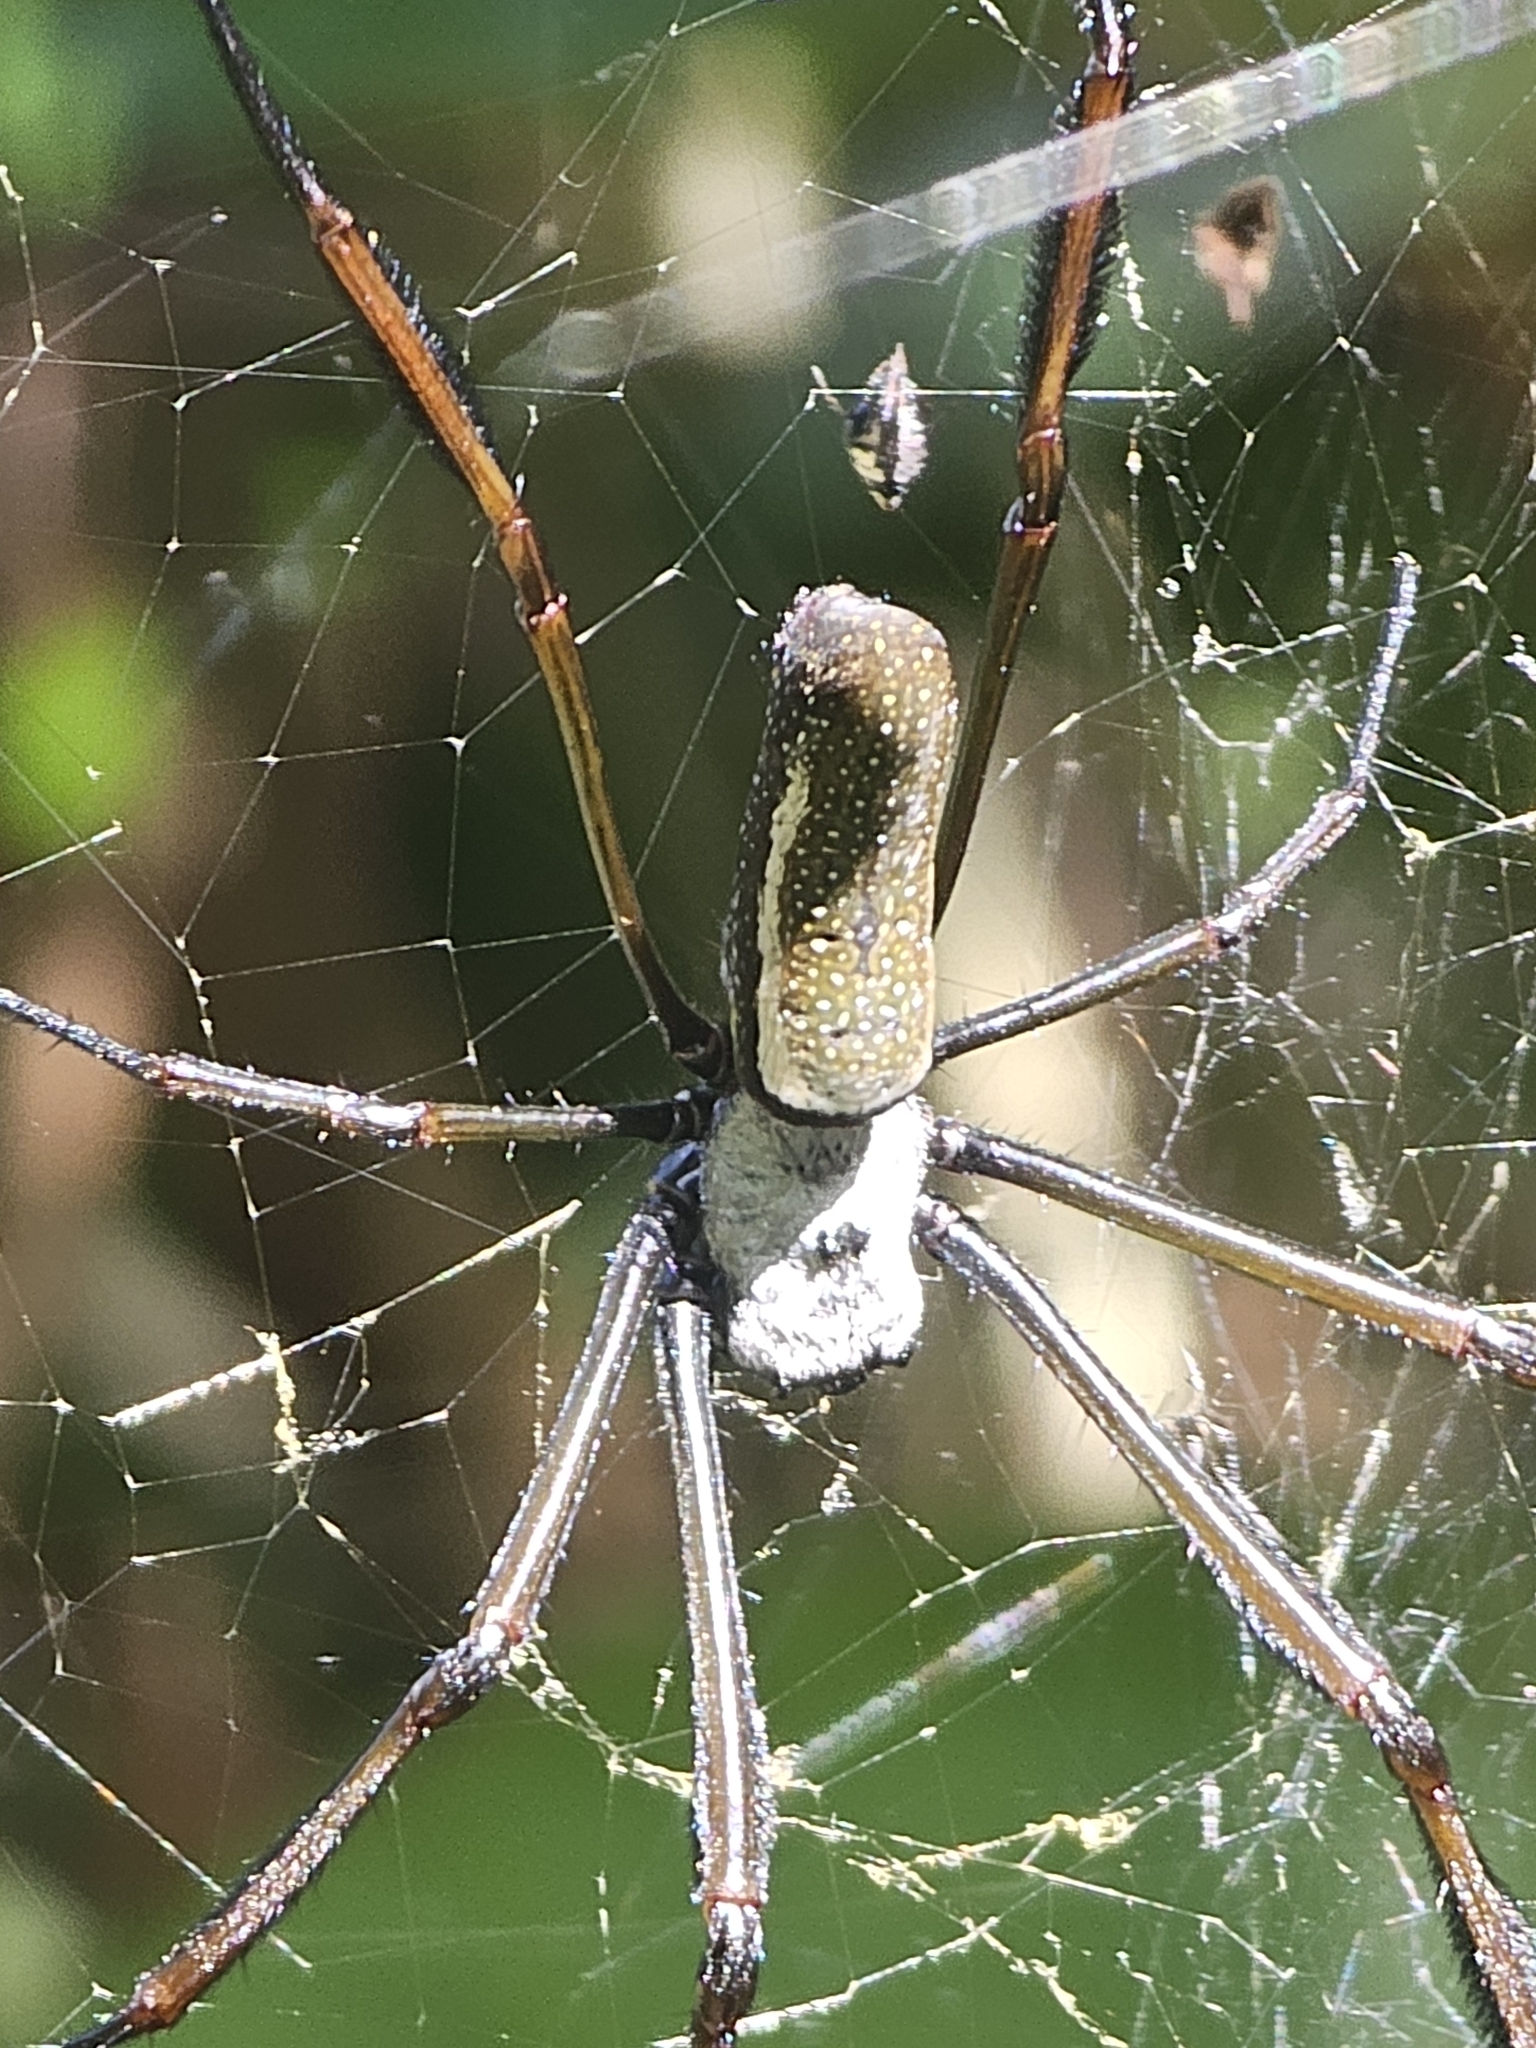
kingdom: Animalia
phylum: Arthropoda
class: Arachnida
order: Araneae
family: Araneidae
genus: Nephila
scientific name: Nephila cornuta
